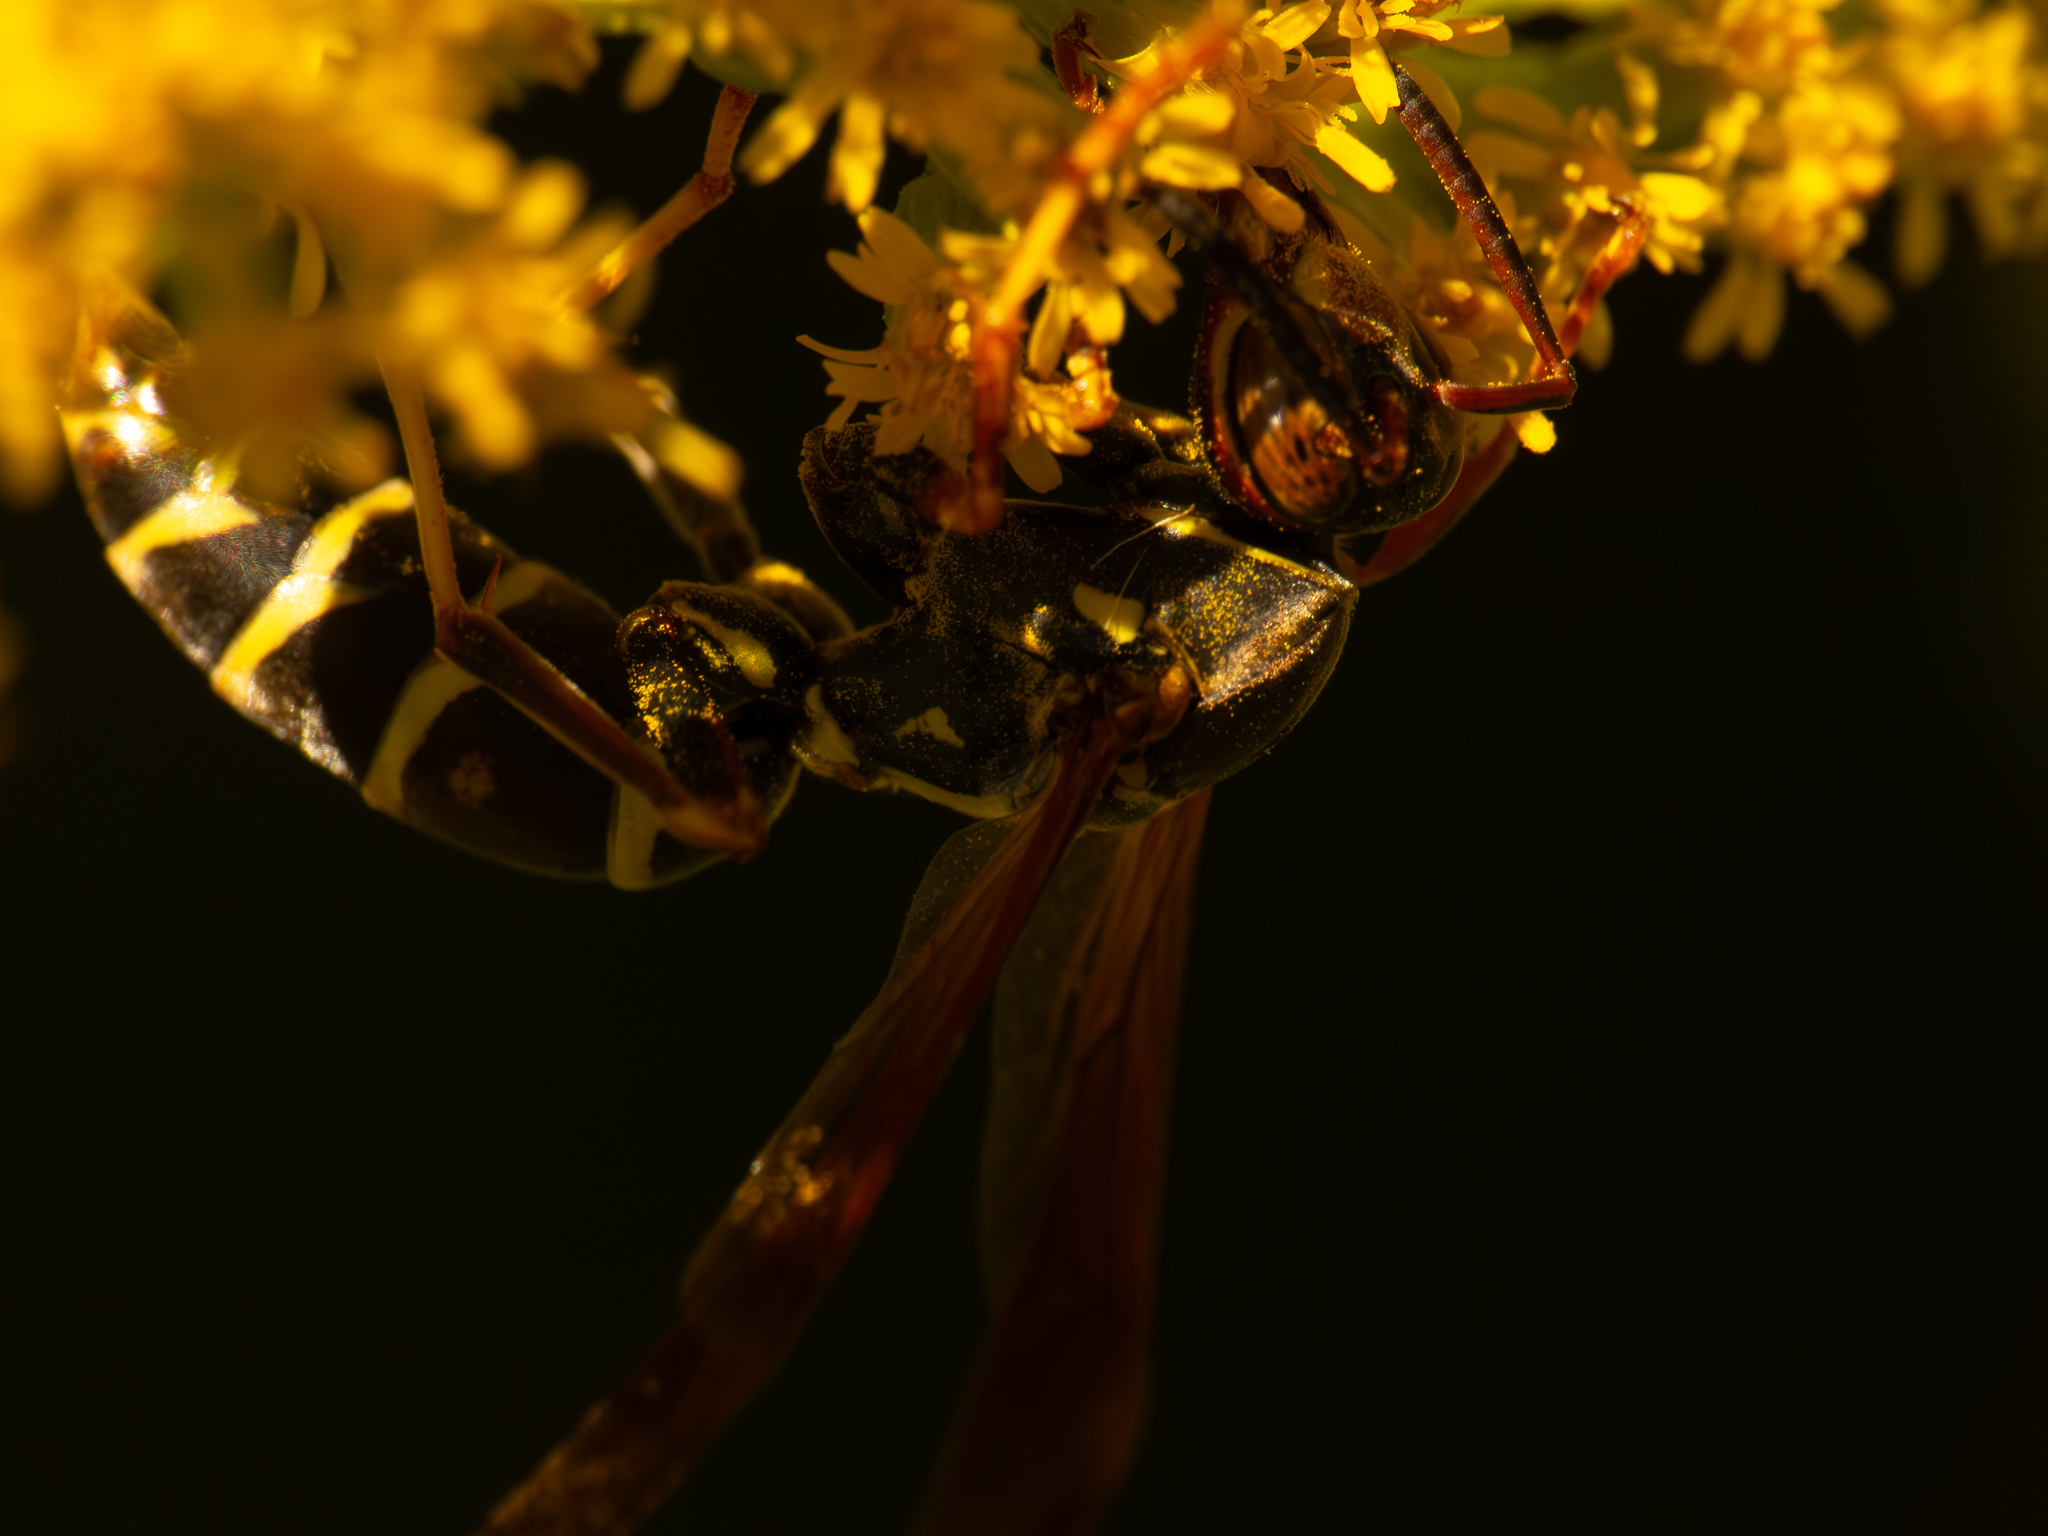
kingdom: Animalia
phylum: Arthropoda
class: Insecta
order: Hymenoptera
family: Eumenidae
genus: Polistes
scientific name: Polistes fuscatus
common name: Dark paper wasp
